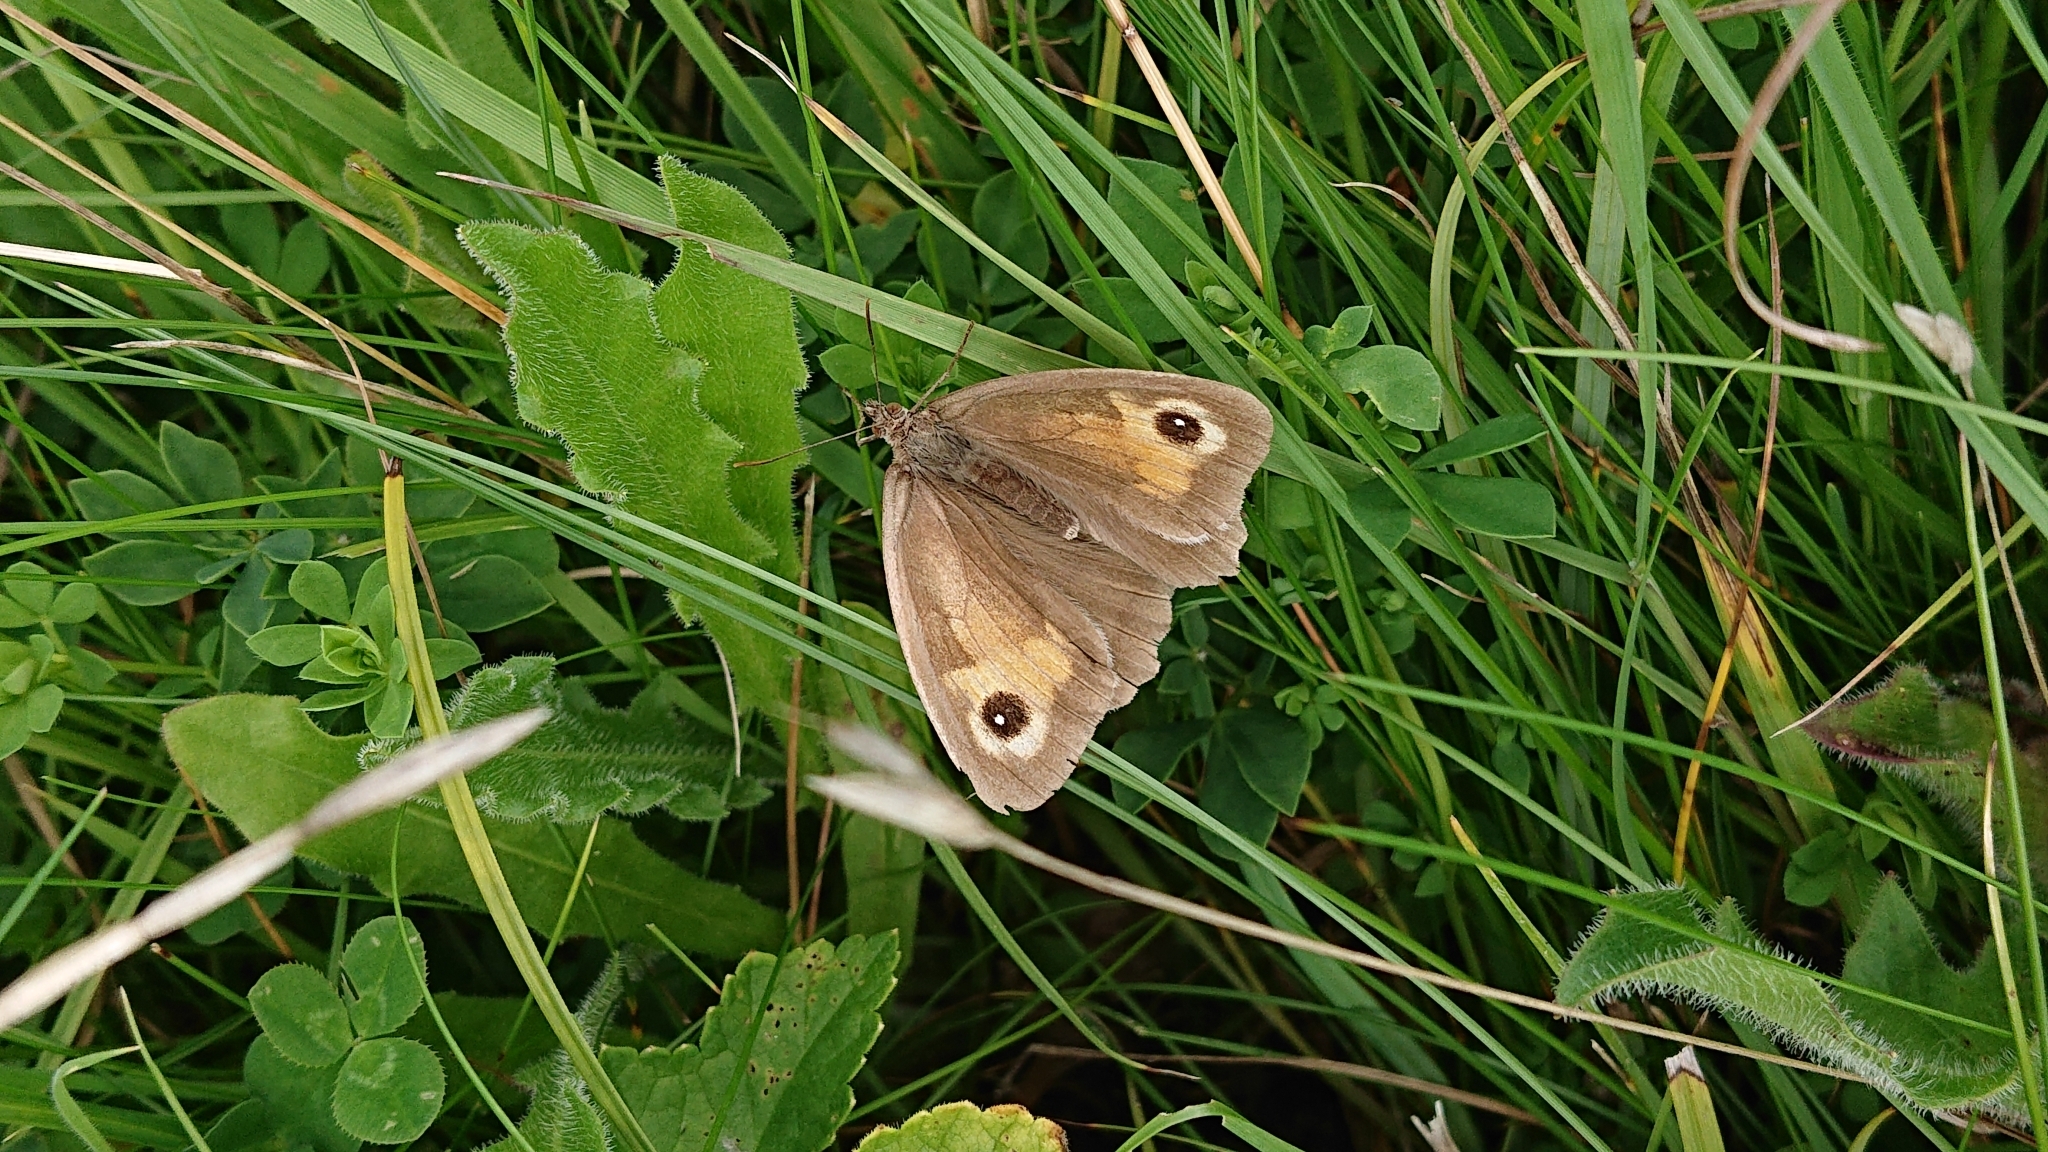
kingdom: Animalia
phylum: Arthropoda
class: Insecta
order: Lepidoptera
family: Nymphalidae
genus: Maniola
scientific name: Maniola jurtina
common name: Meadow brown
